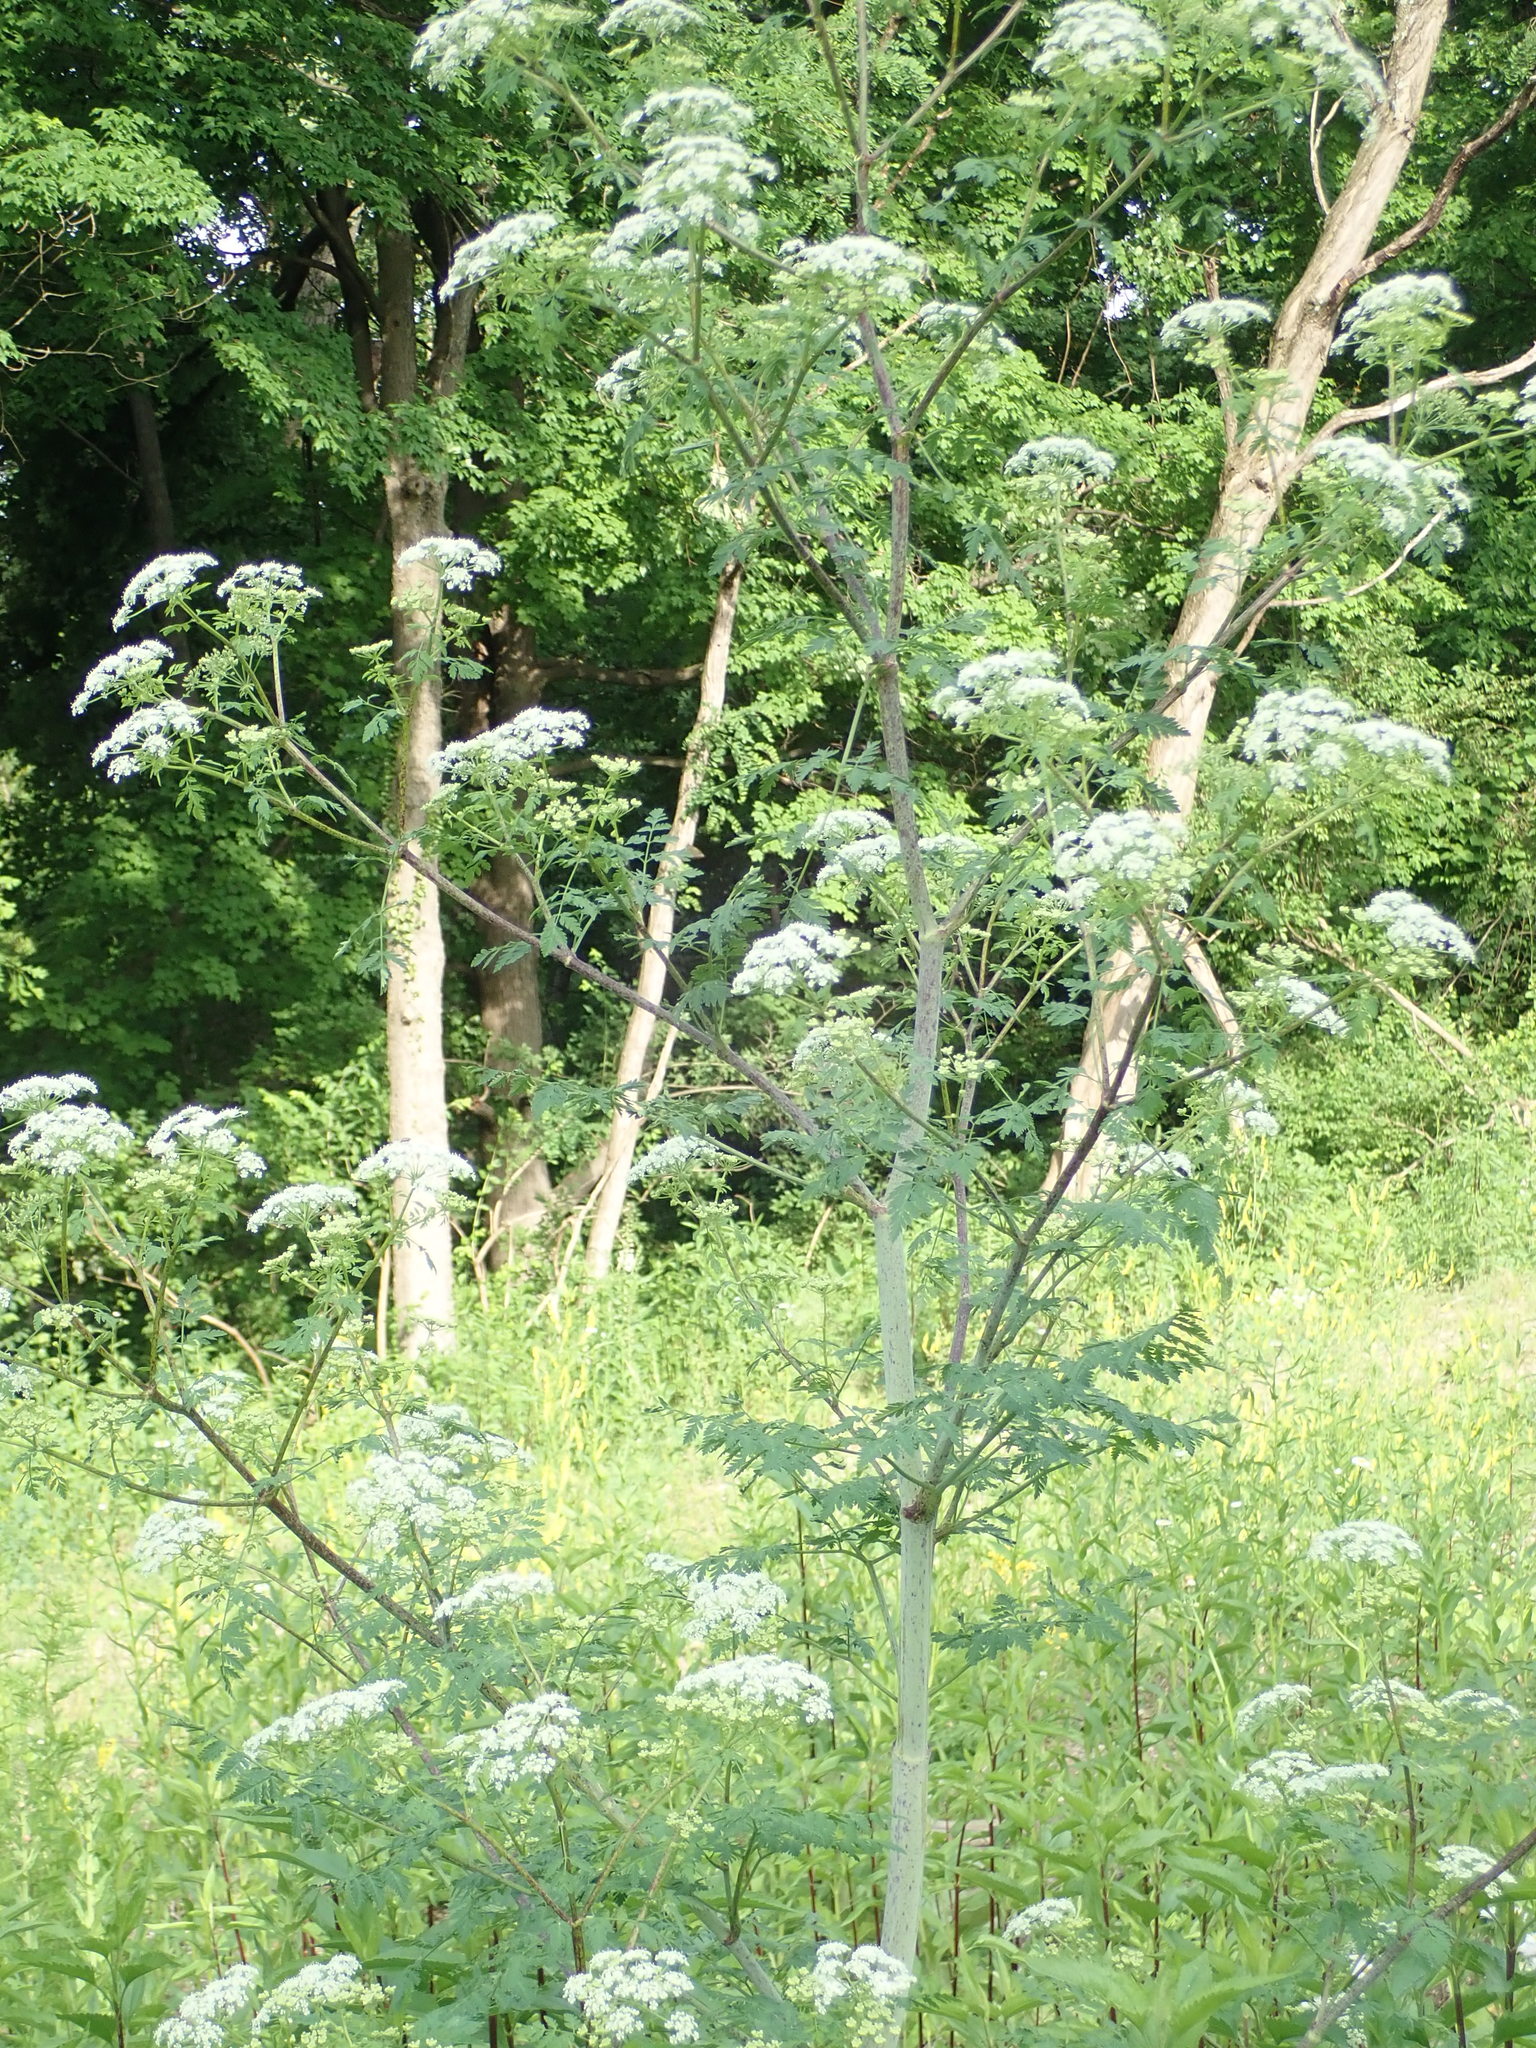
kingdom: Plantae
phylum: Tracheophyta
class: Magnoliopsida
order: Apiales
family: Apiaceae
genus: Conium
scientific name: Conium maculatum
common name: Hemlock
